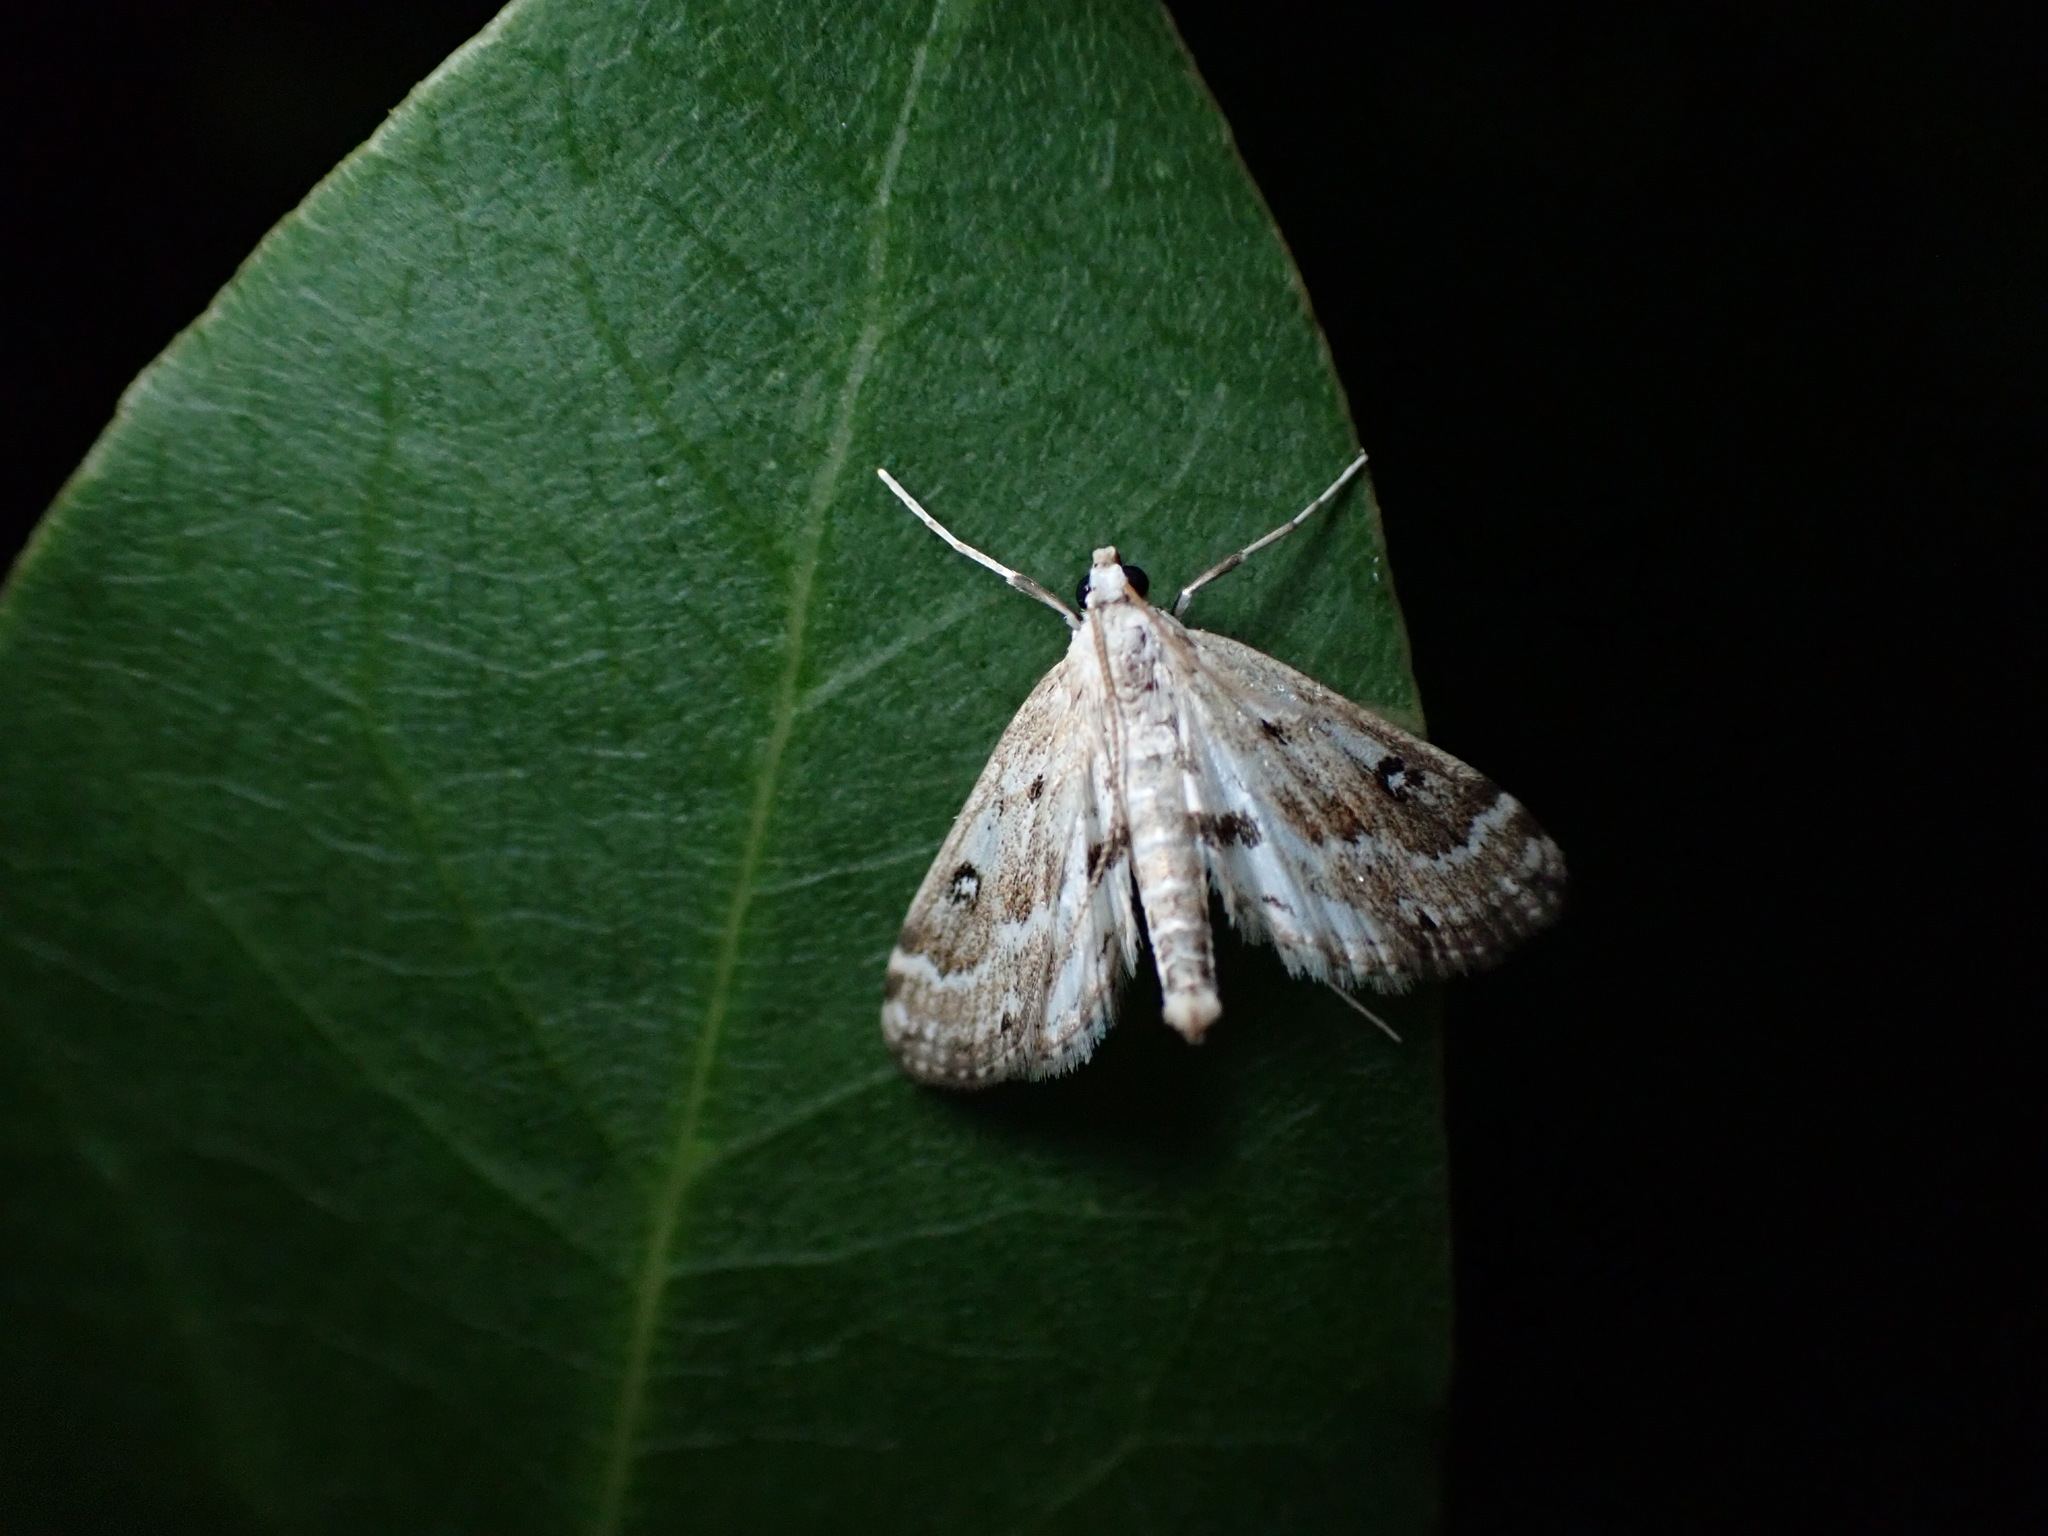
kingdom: Animalia
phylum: Arthropoda
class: Insecta
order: Lepidoptera
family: Crambidae
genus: Parapoynx
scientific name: Parapoynx stratiotata
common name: Ringed china-mark
